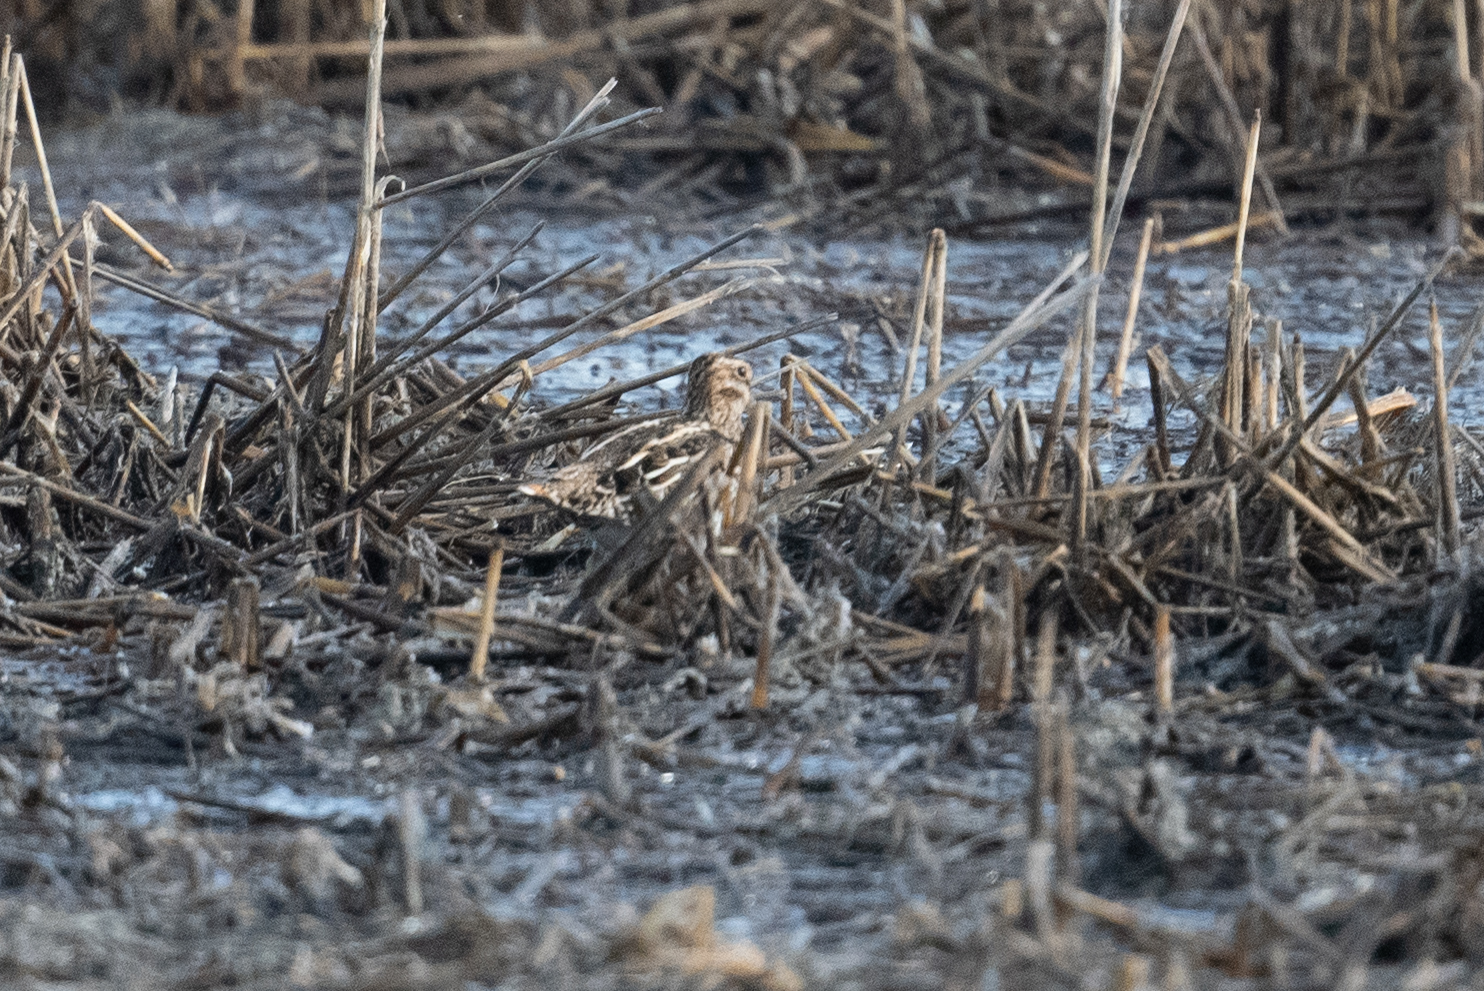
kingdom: Animalia
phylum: Chordata
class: Aves
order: Charadriiformes
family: Scolopacidae
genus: Gallinago
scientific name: Gallinago delicata
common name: Wilson's snipe
